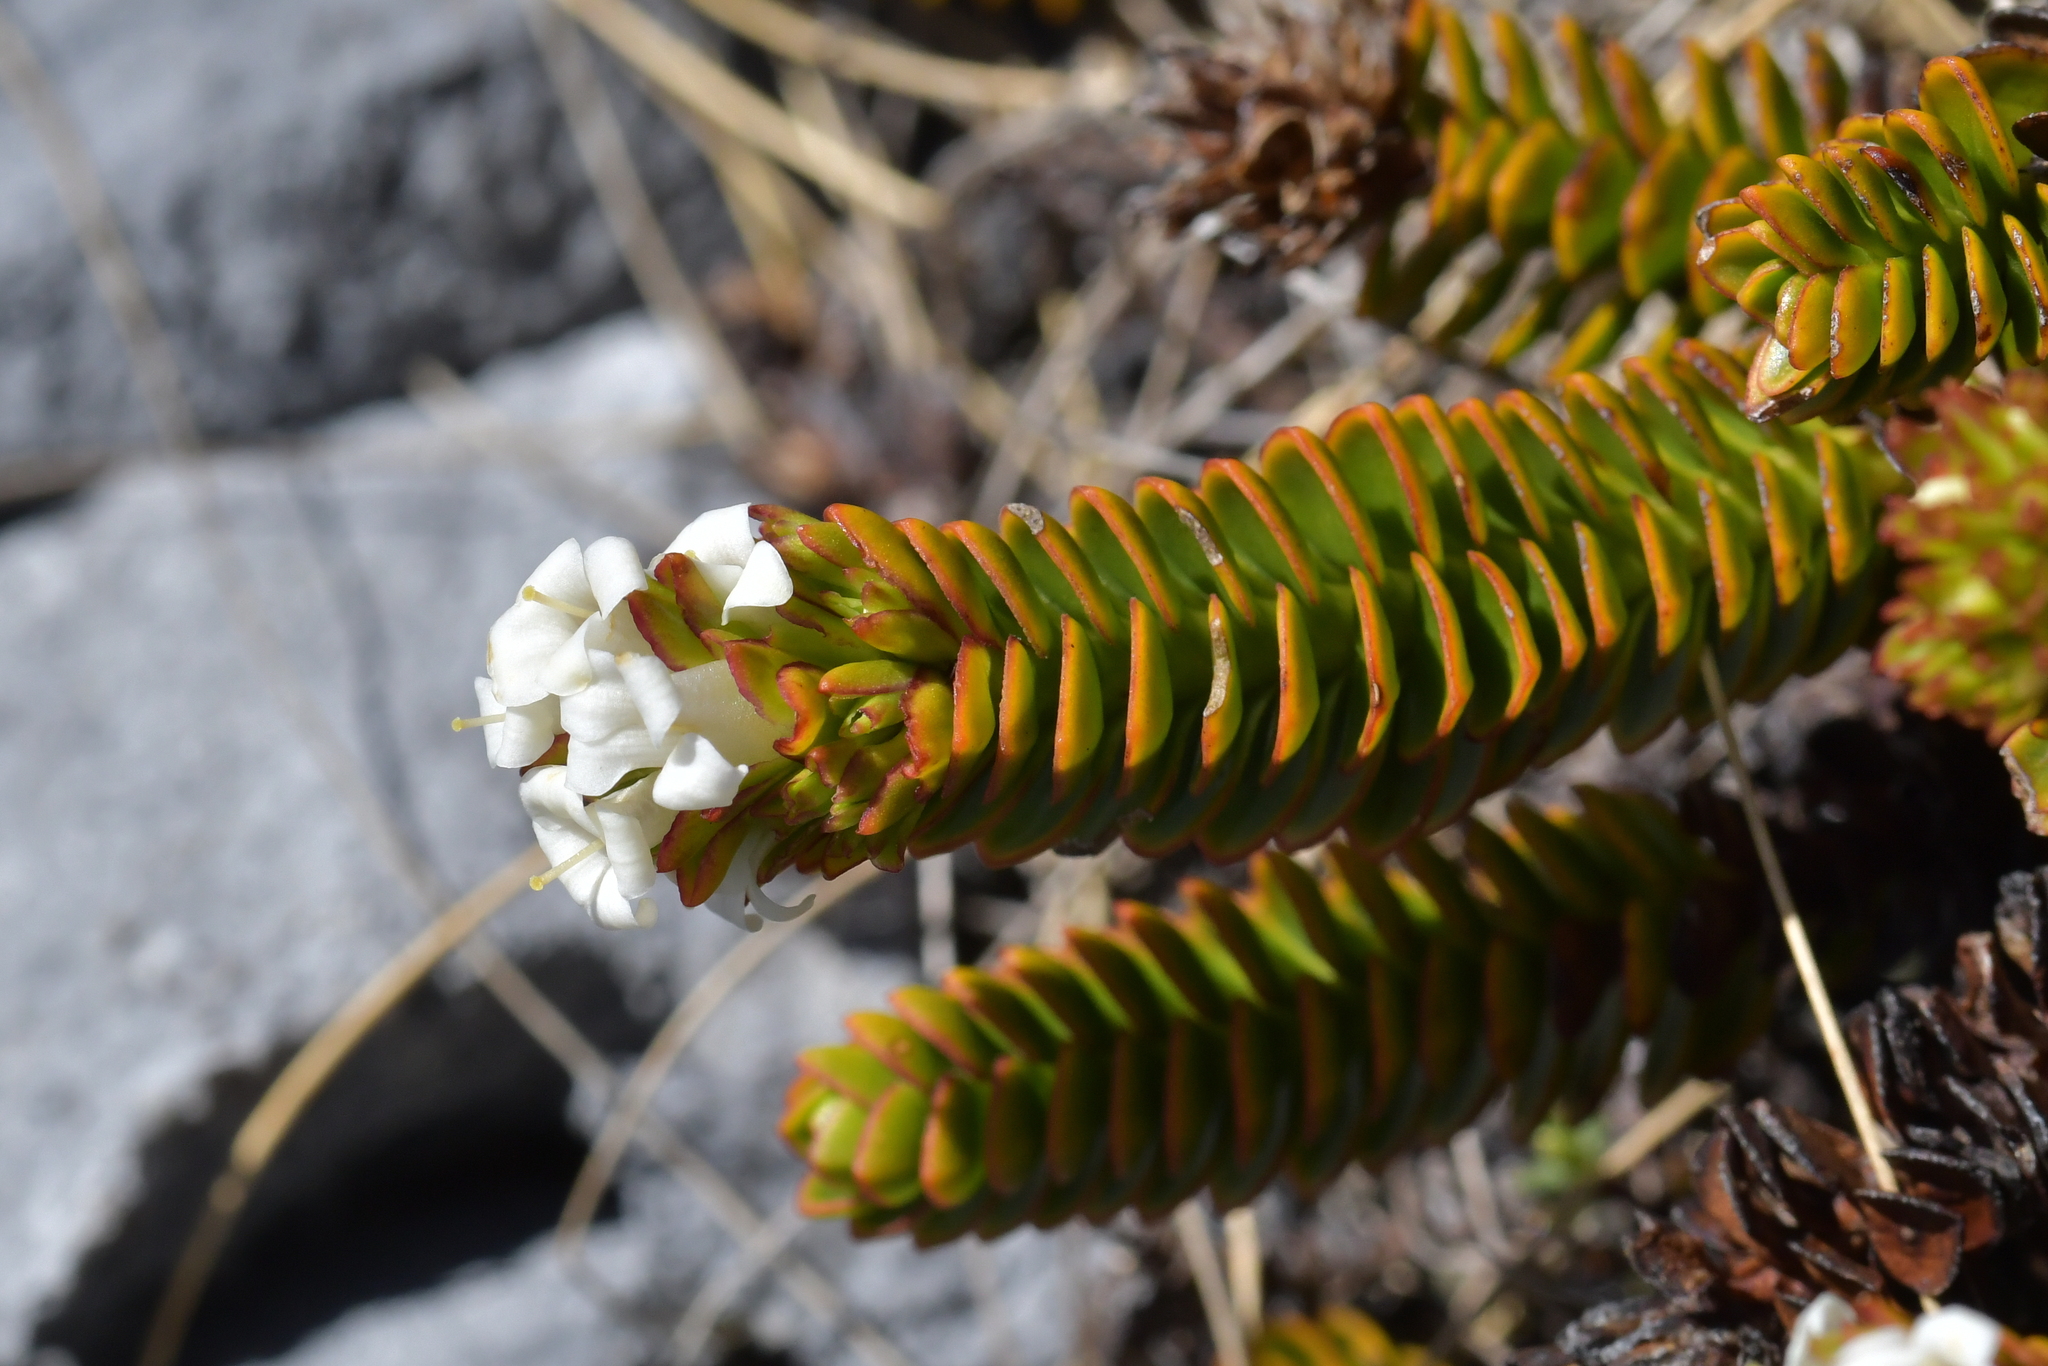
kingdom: Plantae
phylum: Tracheophyta
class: Magnoliopsida
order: Lamiales
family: Plantaginaceae
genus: Veronica
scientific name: Veronica macrocalyx
